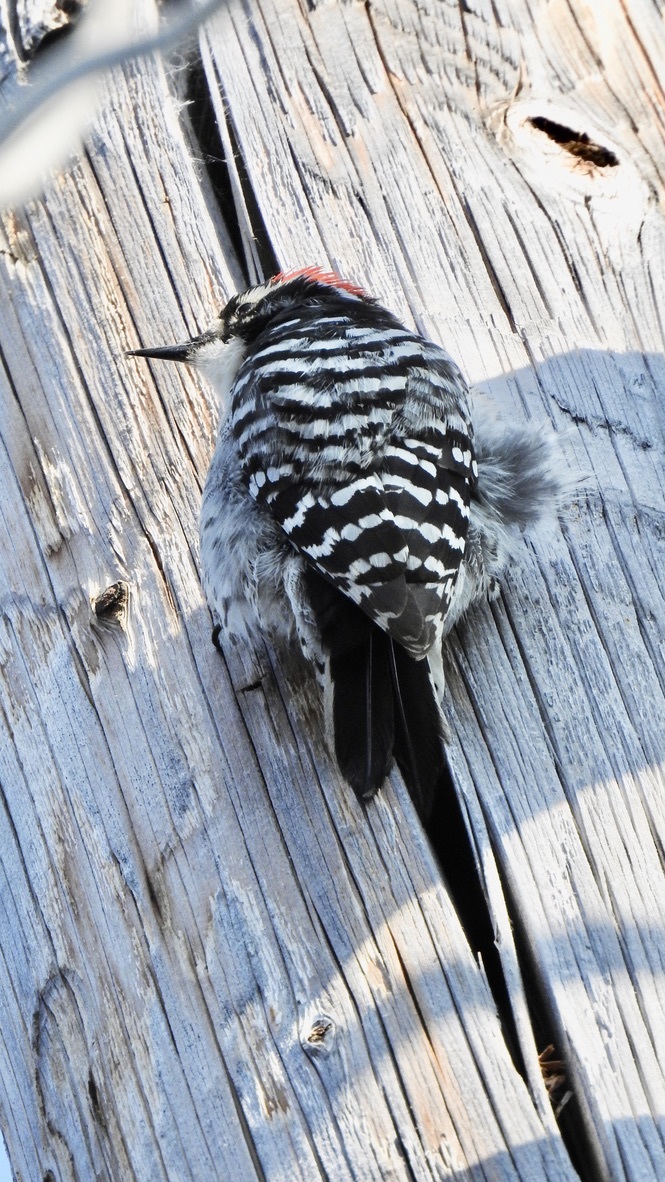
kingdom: Animalia
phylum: Chordata
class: Aves
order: Piciformes
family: Picidae
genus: Dryobates
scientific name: Dryobates nuttallii
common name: Nuttall's woodpecker
